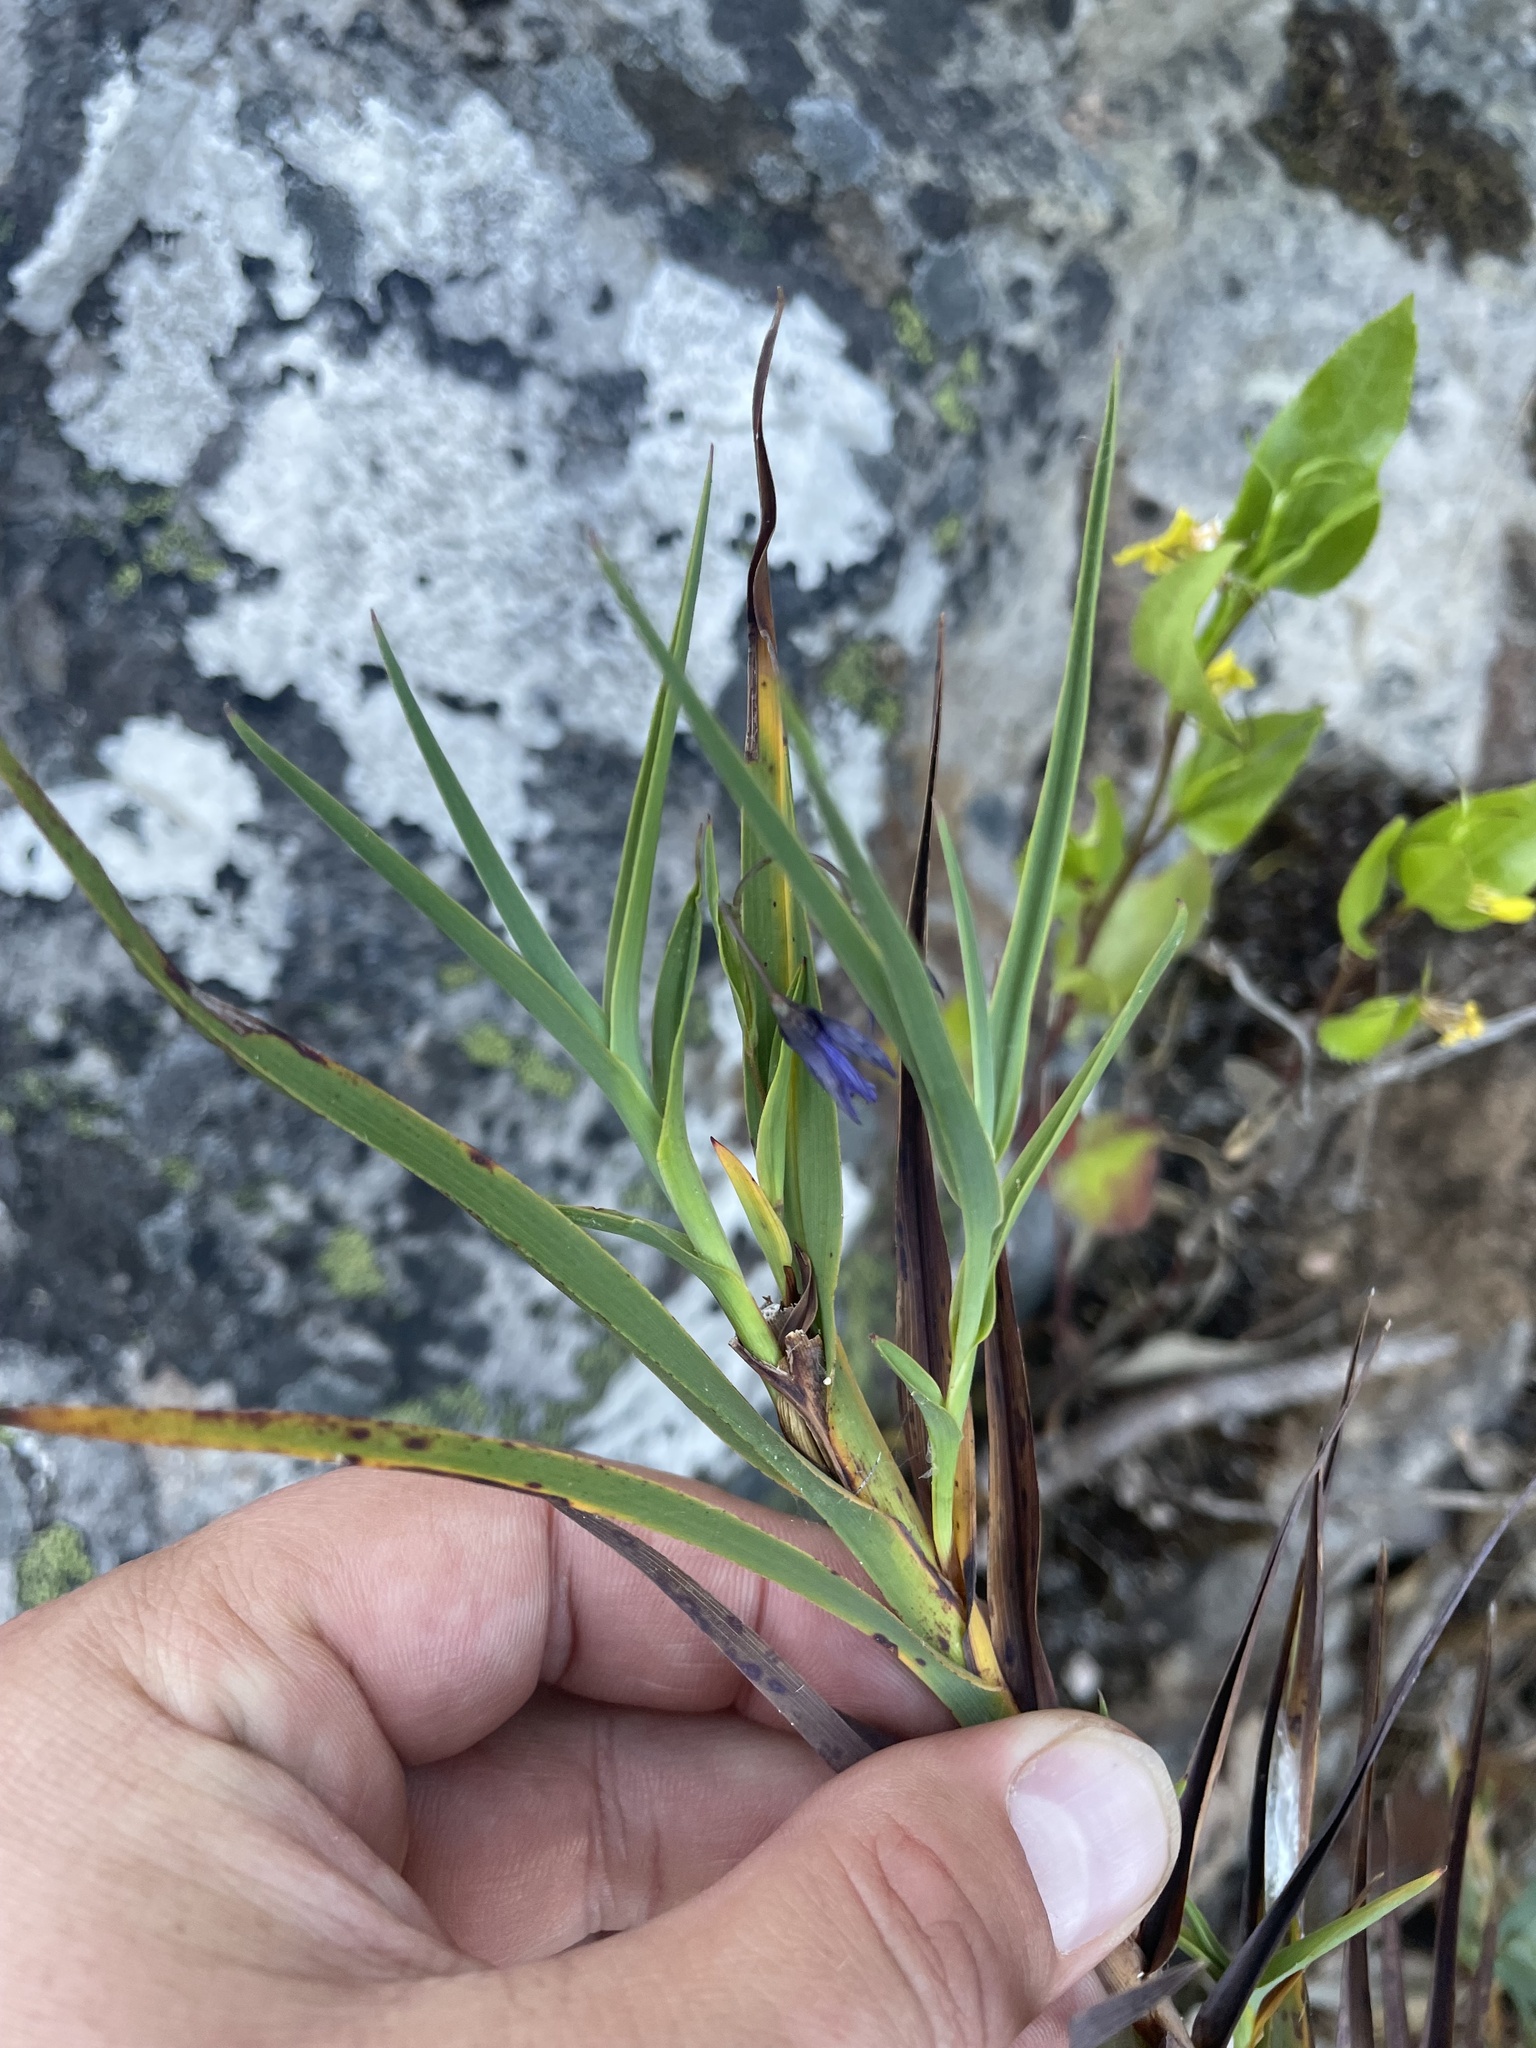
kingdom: Plantae
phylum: Tracheophyta
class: Liliopsida
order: Asparagales
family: Asphodelaceae
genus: Stypandra
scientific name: Stypandra glauca
